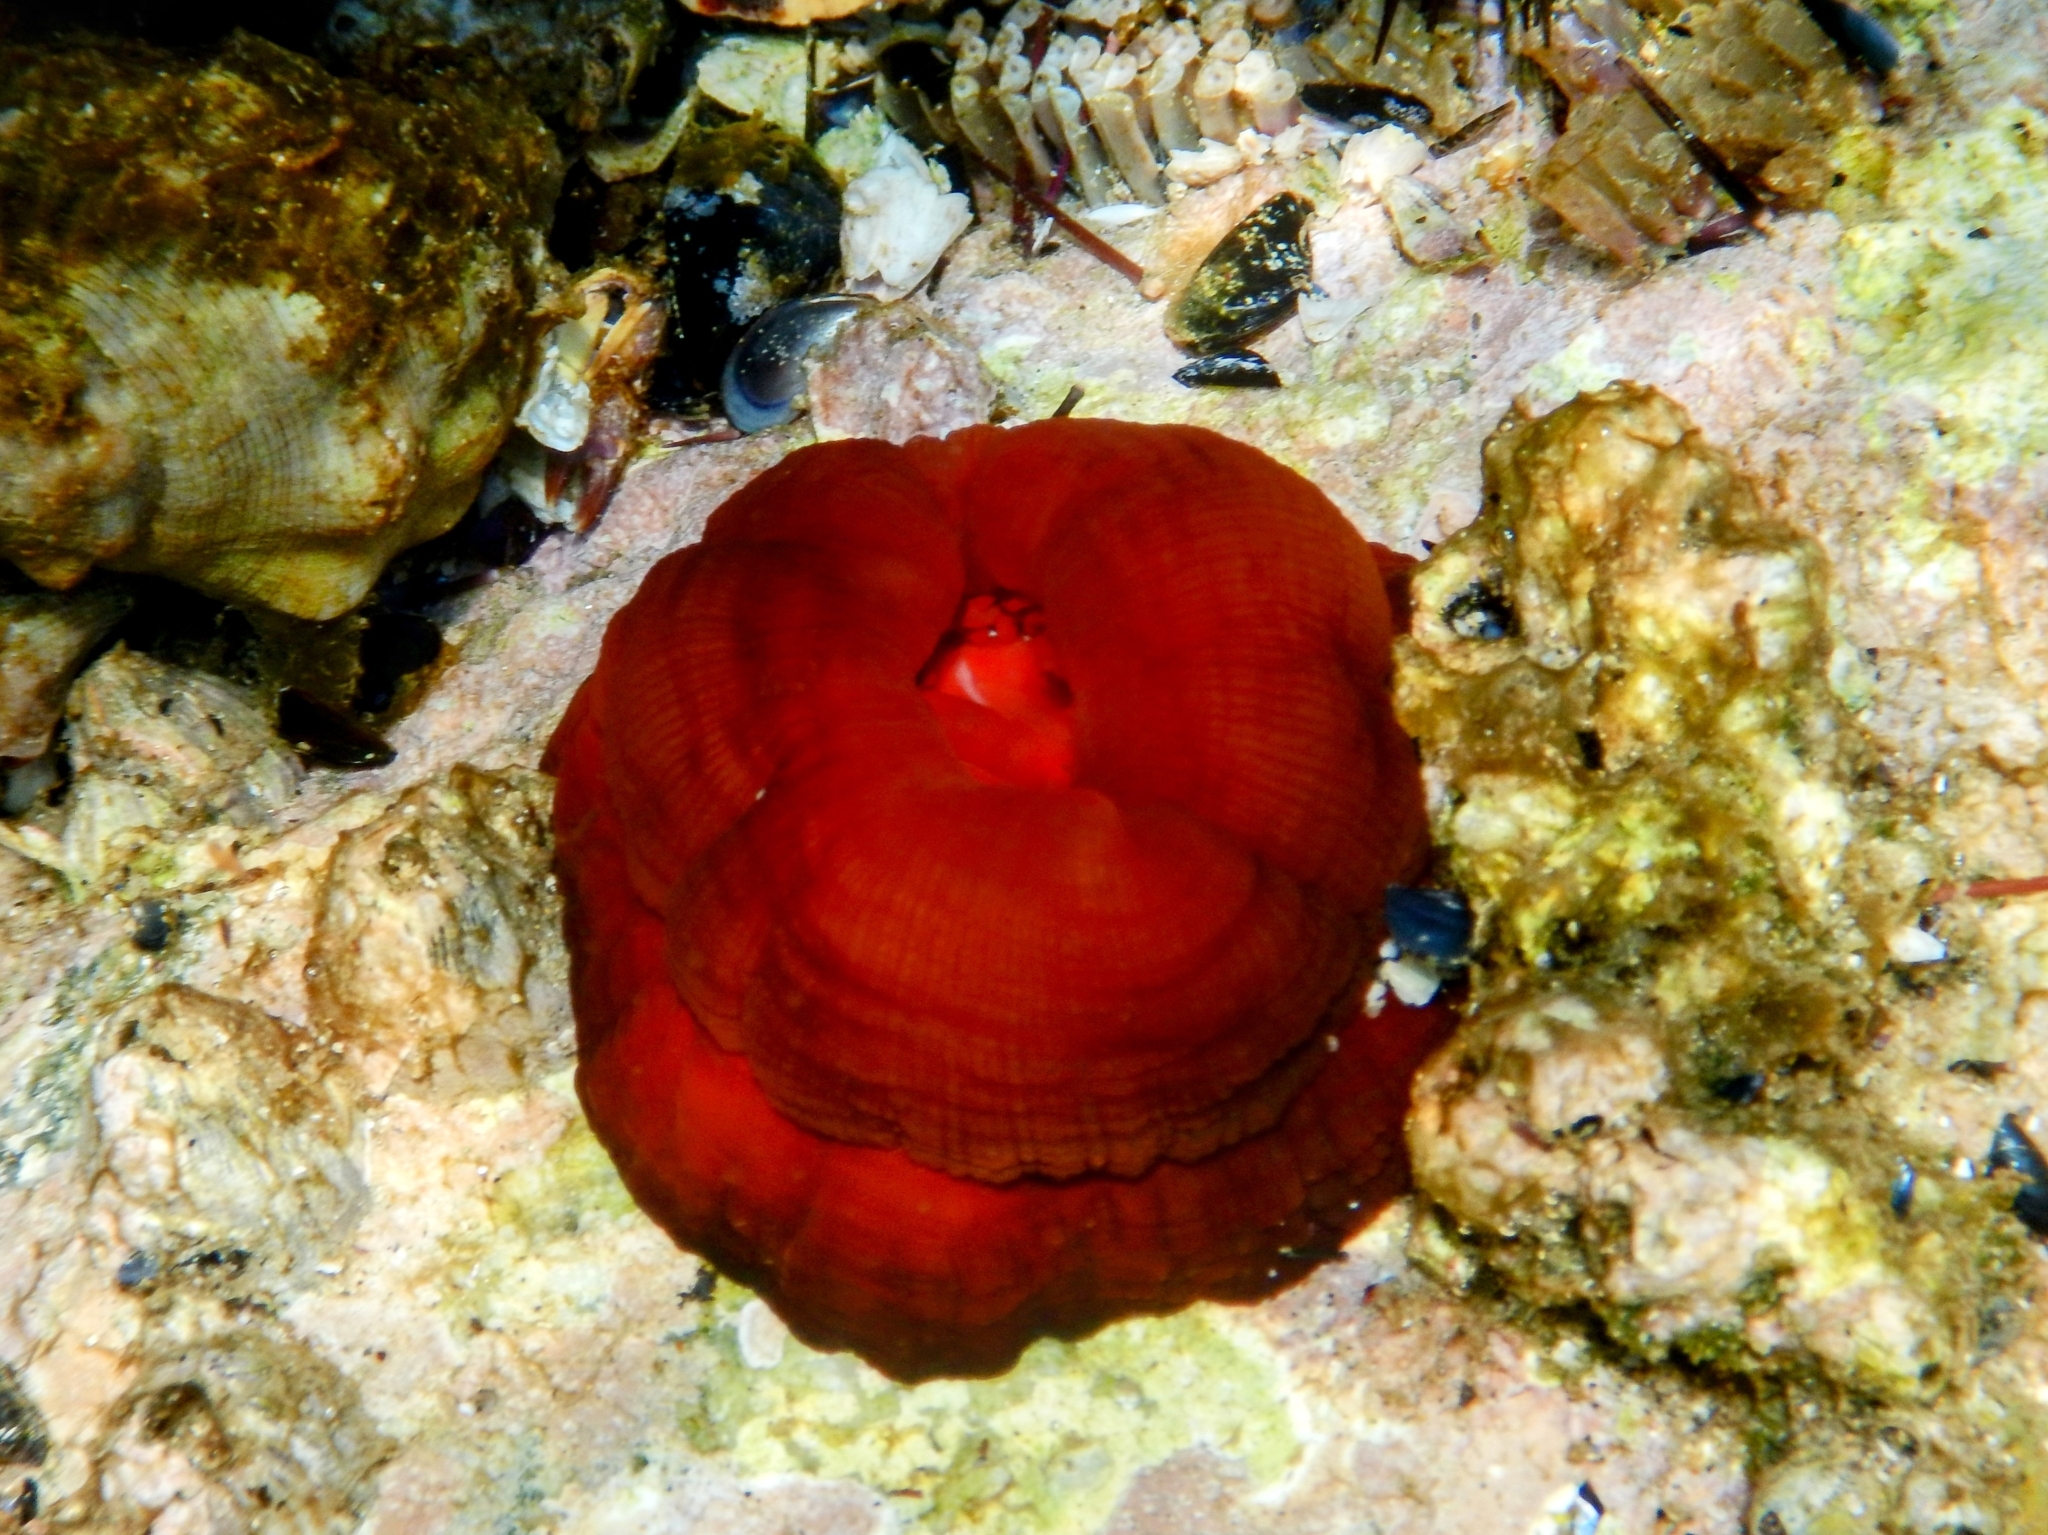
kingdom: Animalia
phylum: Cnidaria
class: Anthozoa
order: Actiniaria
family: Actiniidae
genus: Actinia
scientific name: Actinia mediterranea
